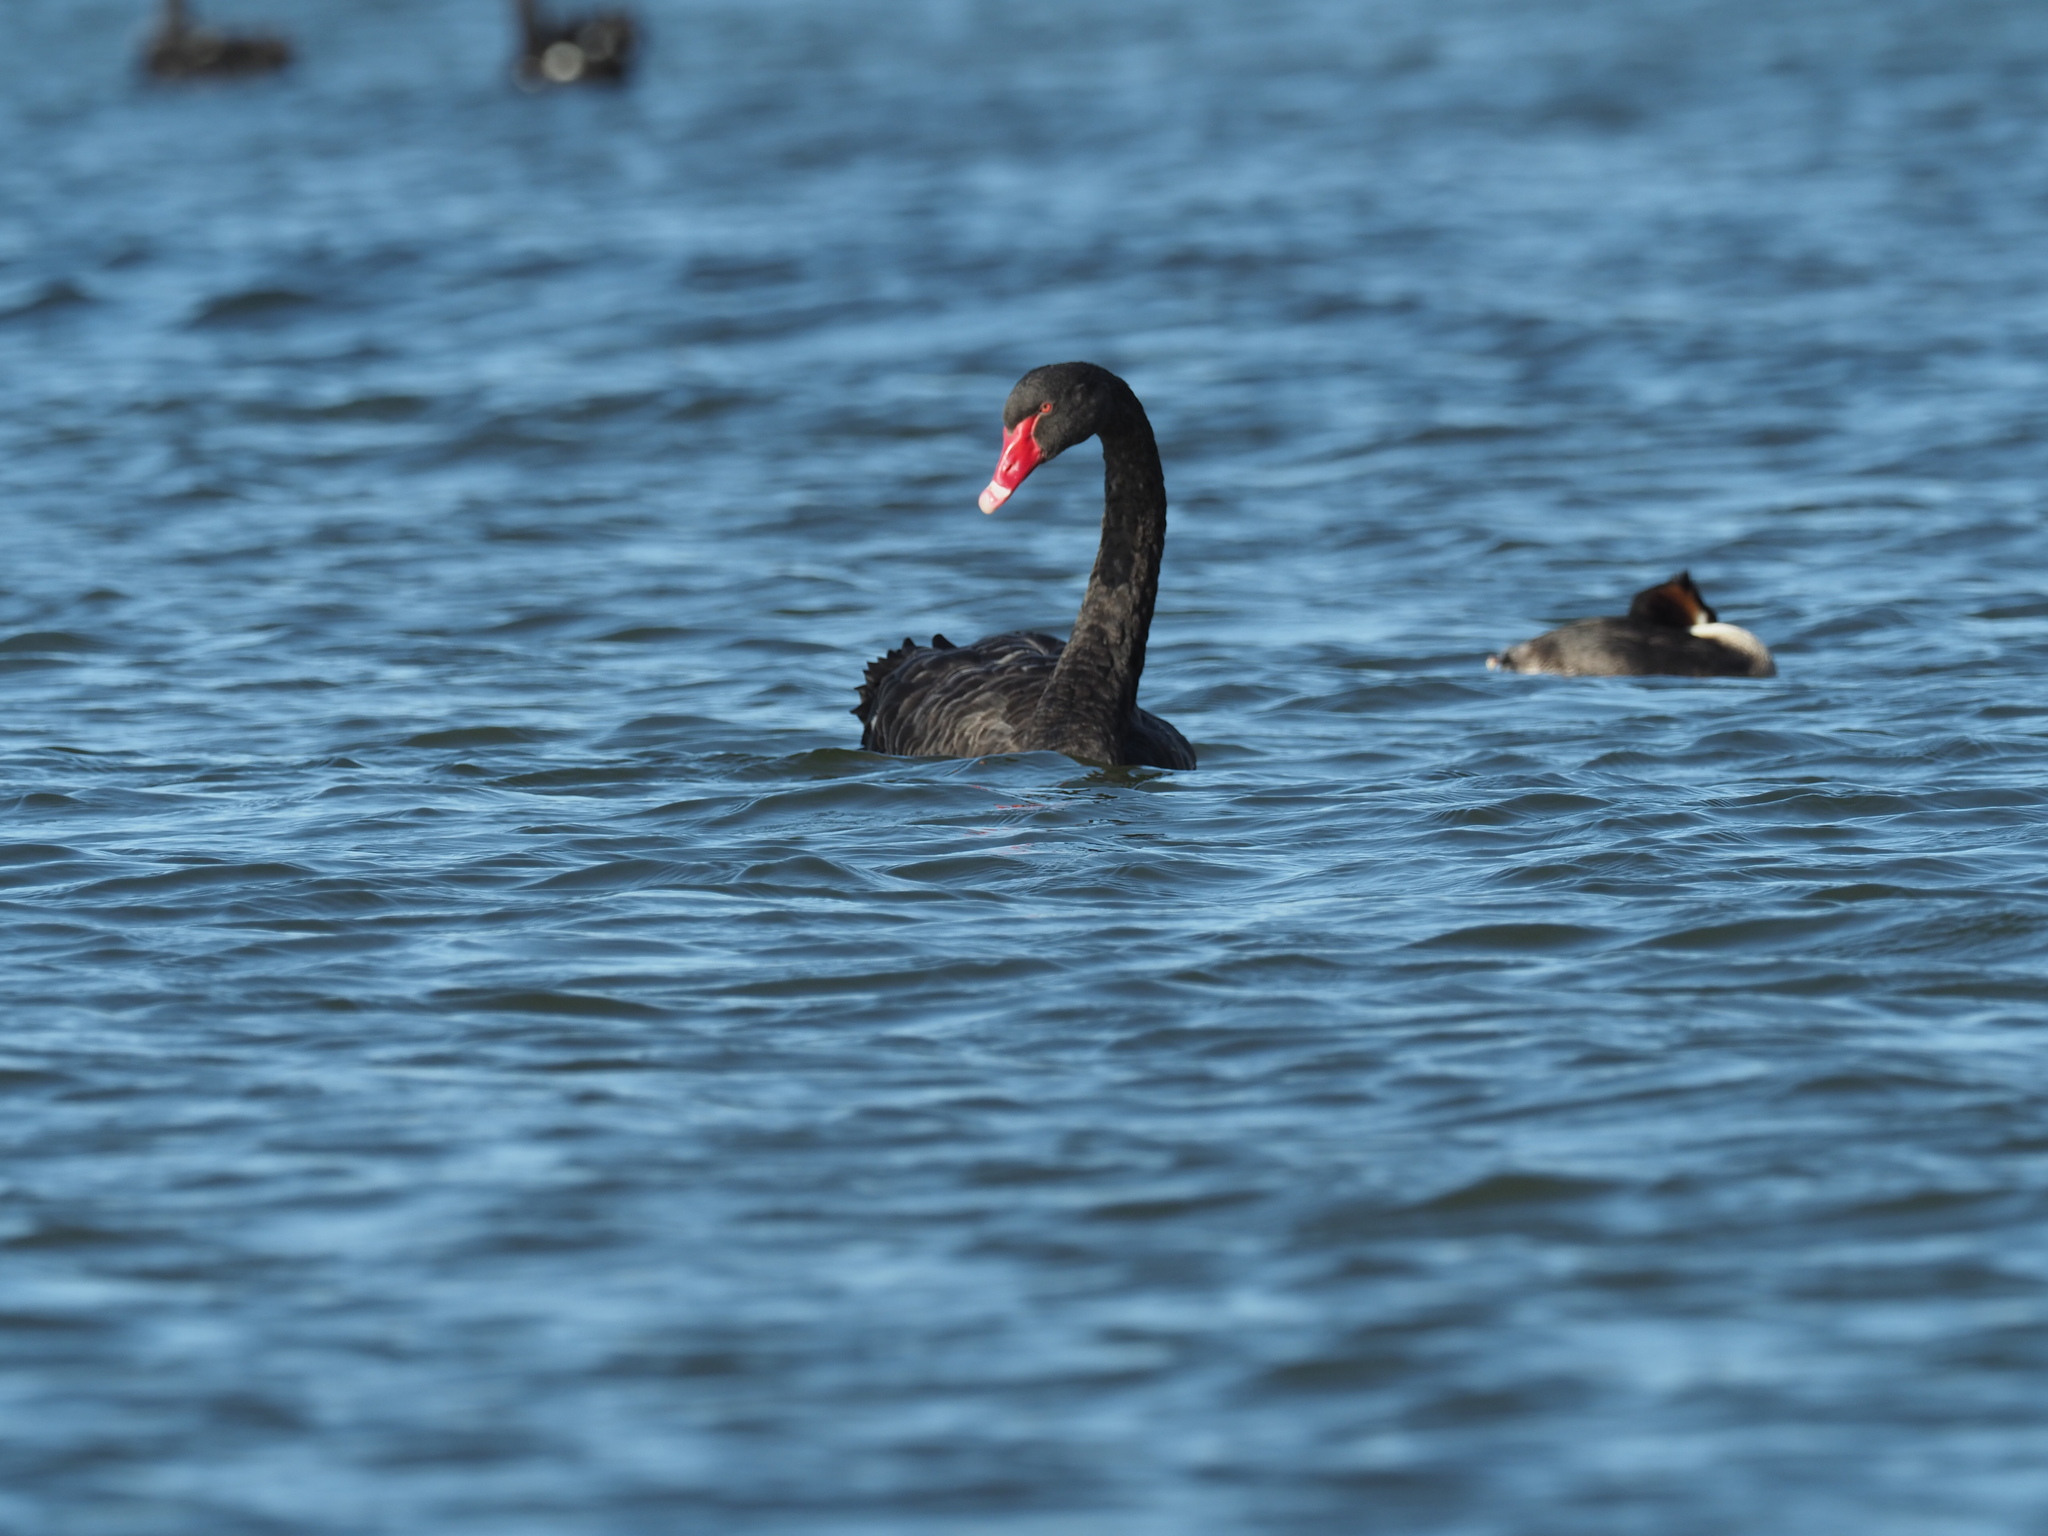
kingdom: Animalia
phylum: Chordata
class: Aves
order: Anseriformes
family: Anatidae
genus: Cygnus
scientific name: Cygnus atratus
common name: Black swan
